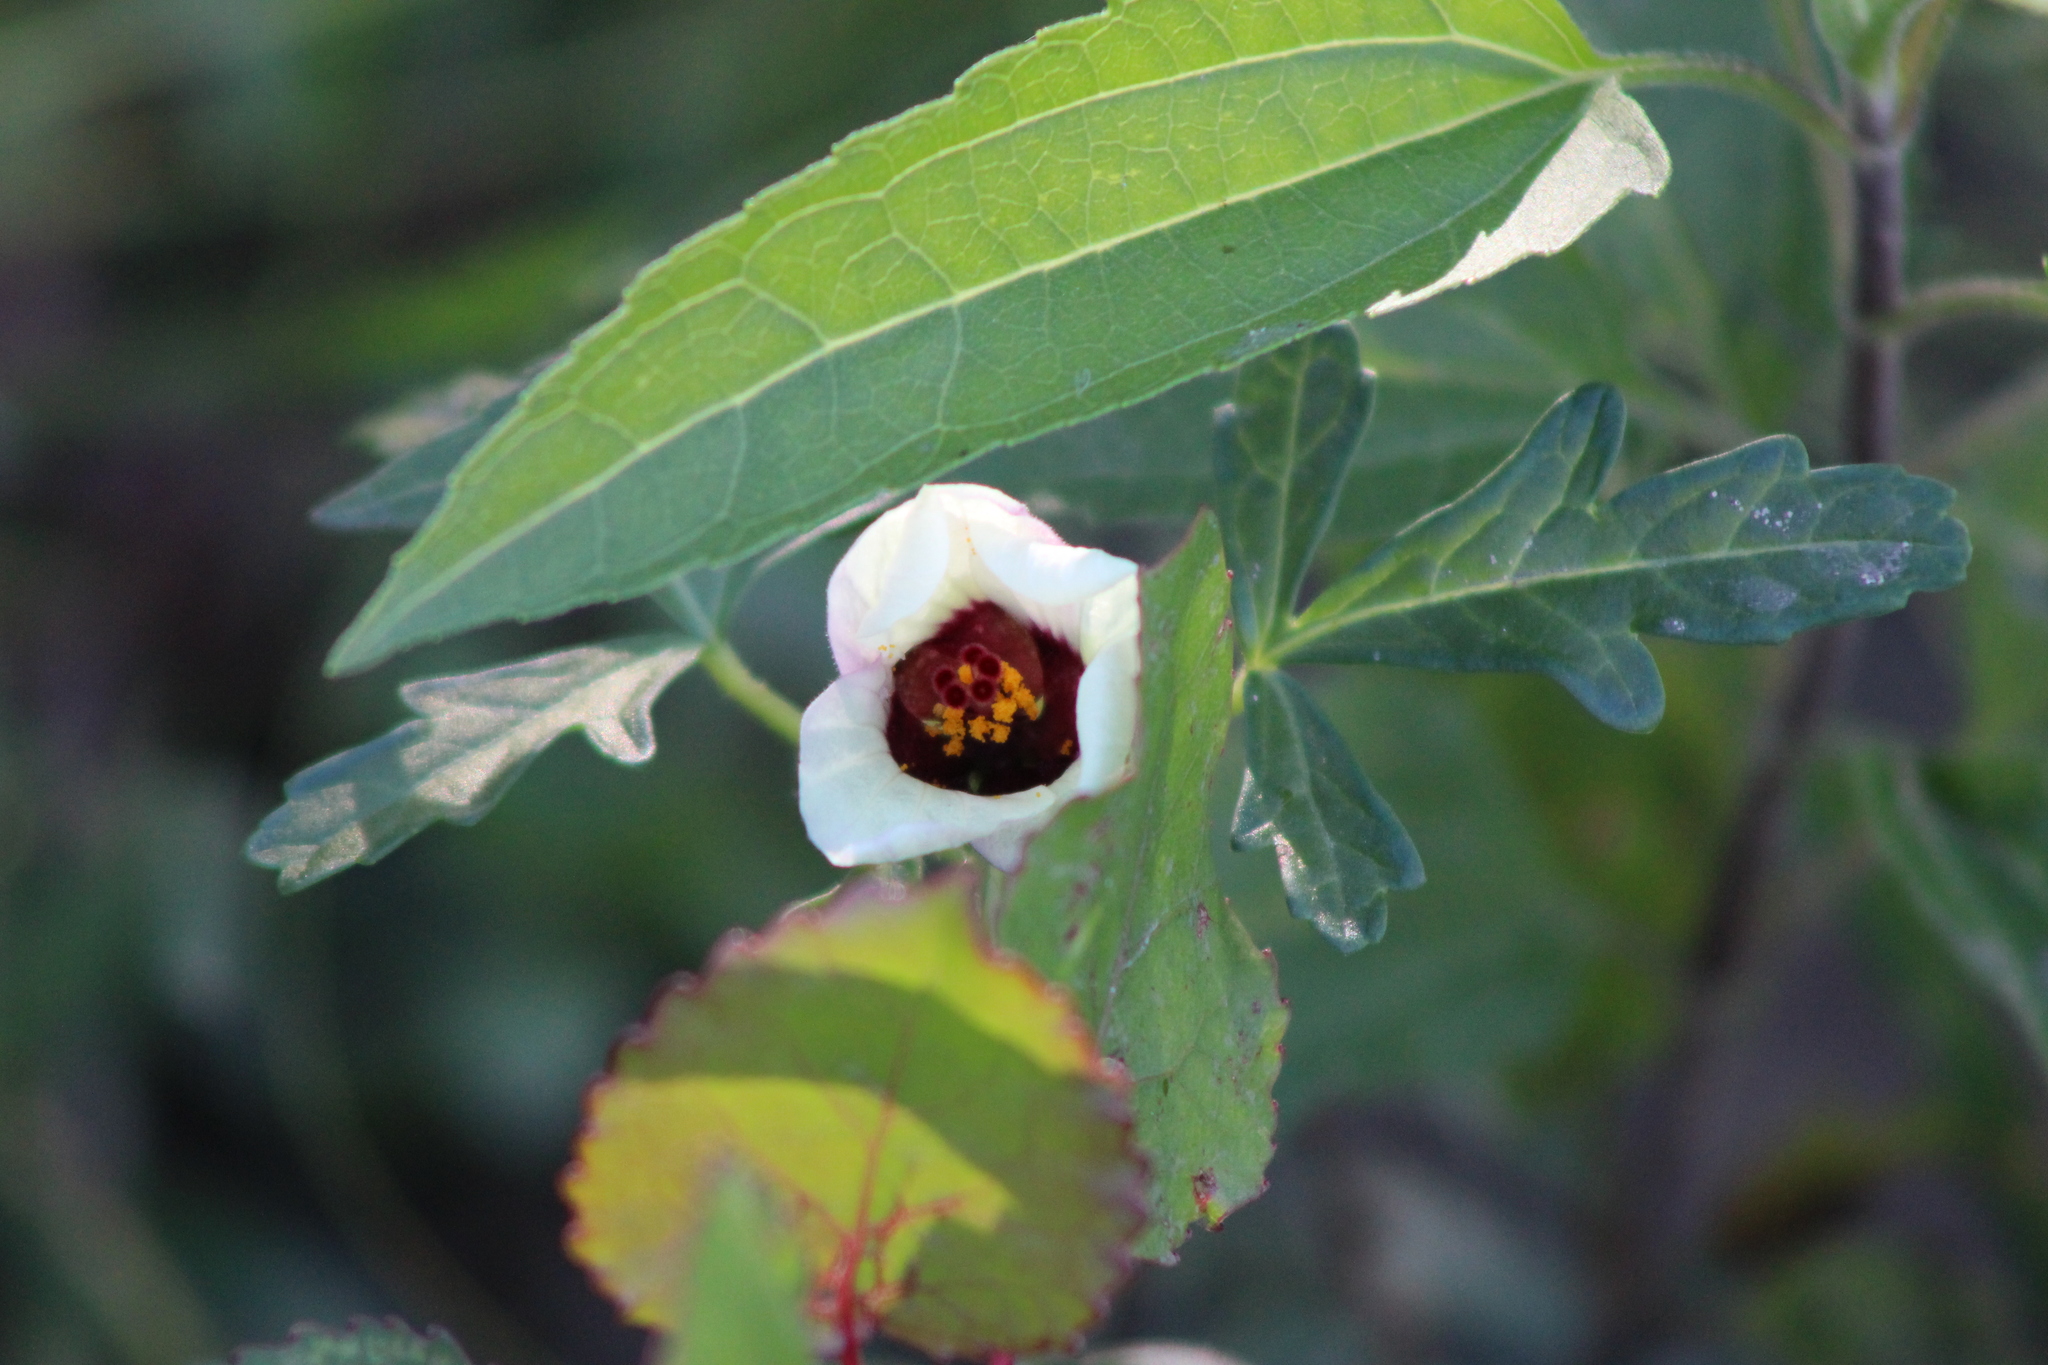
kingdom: Plantae
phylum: Tracheophyta
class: Magnoliopsida
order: Malvales
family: Malvaceae
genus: Hibiscus
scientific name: Hibiscus trionum
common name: Bladder ketmia
